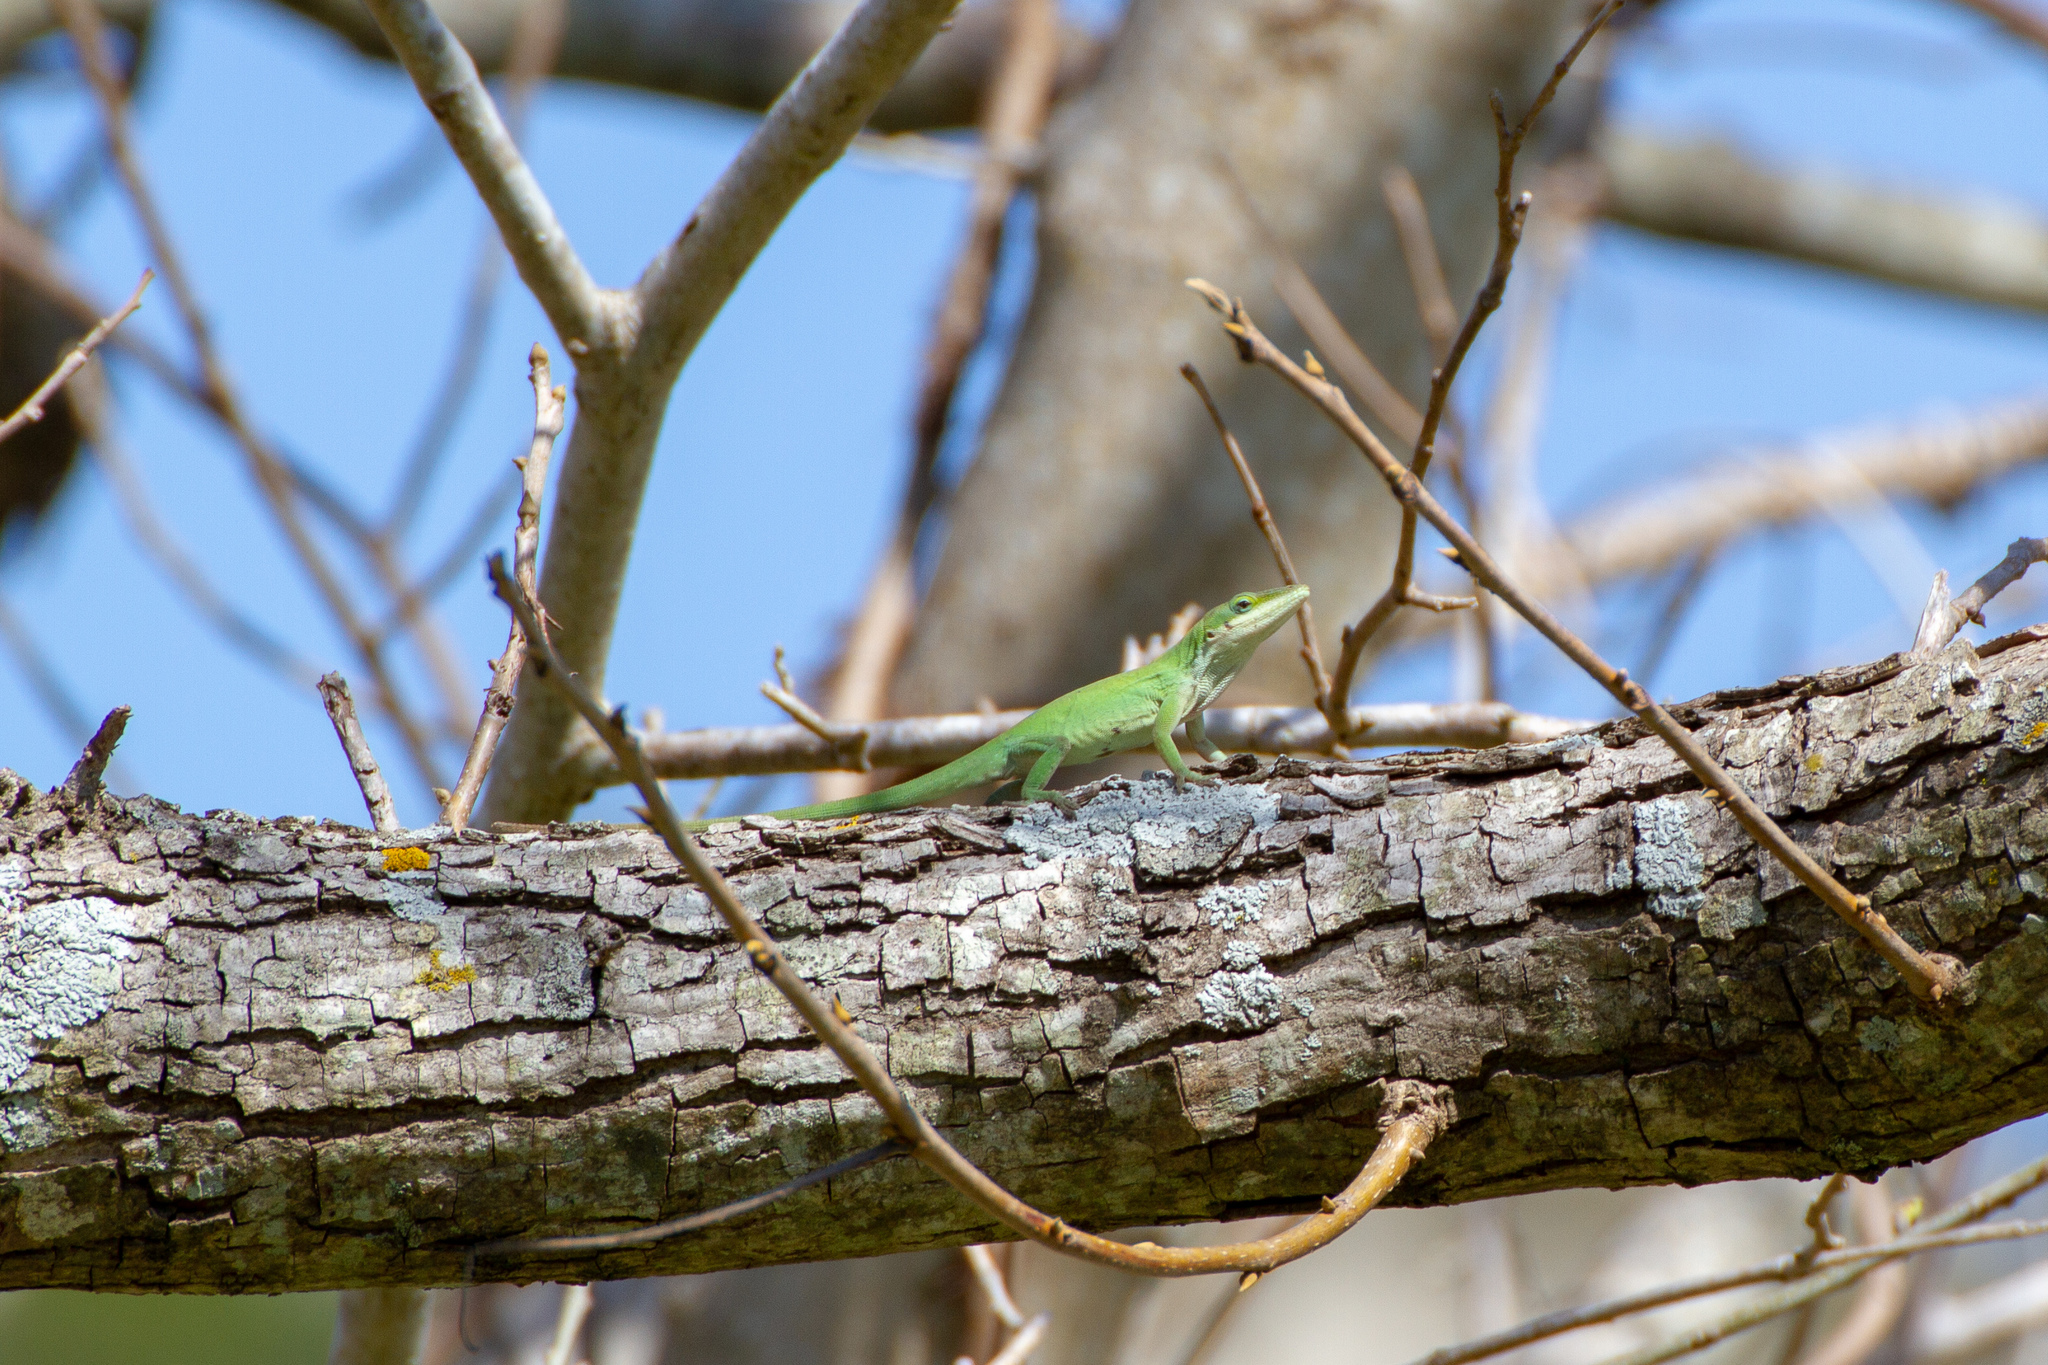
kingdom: Animalia
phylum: Chordata
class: Squamata
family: Dactyloidae
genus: Anolis
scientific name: Anolis carolinensis
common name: Green anole
